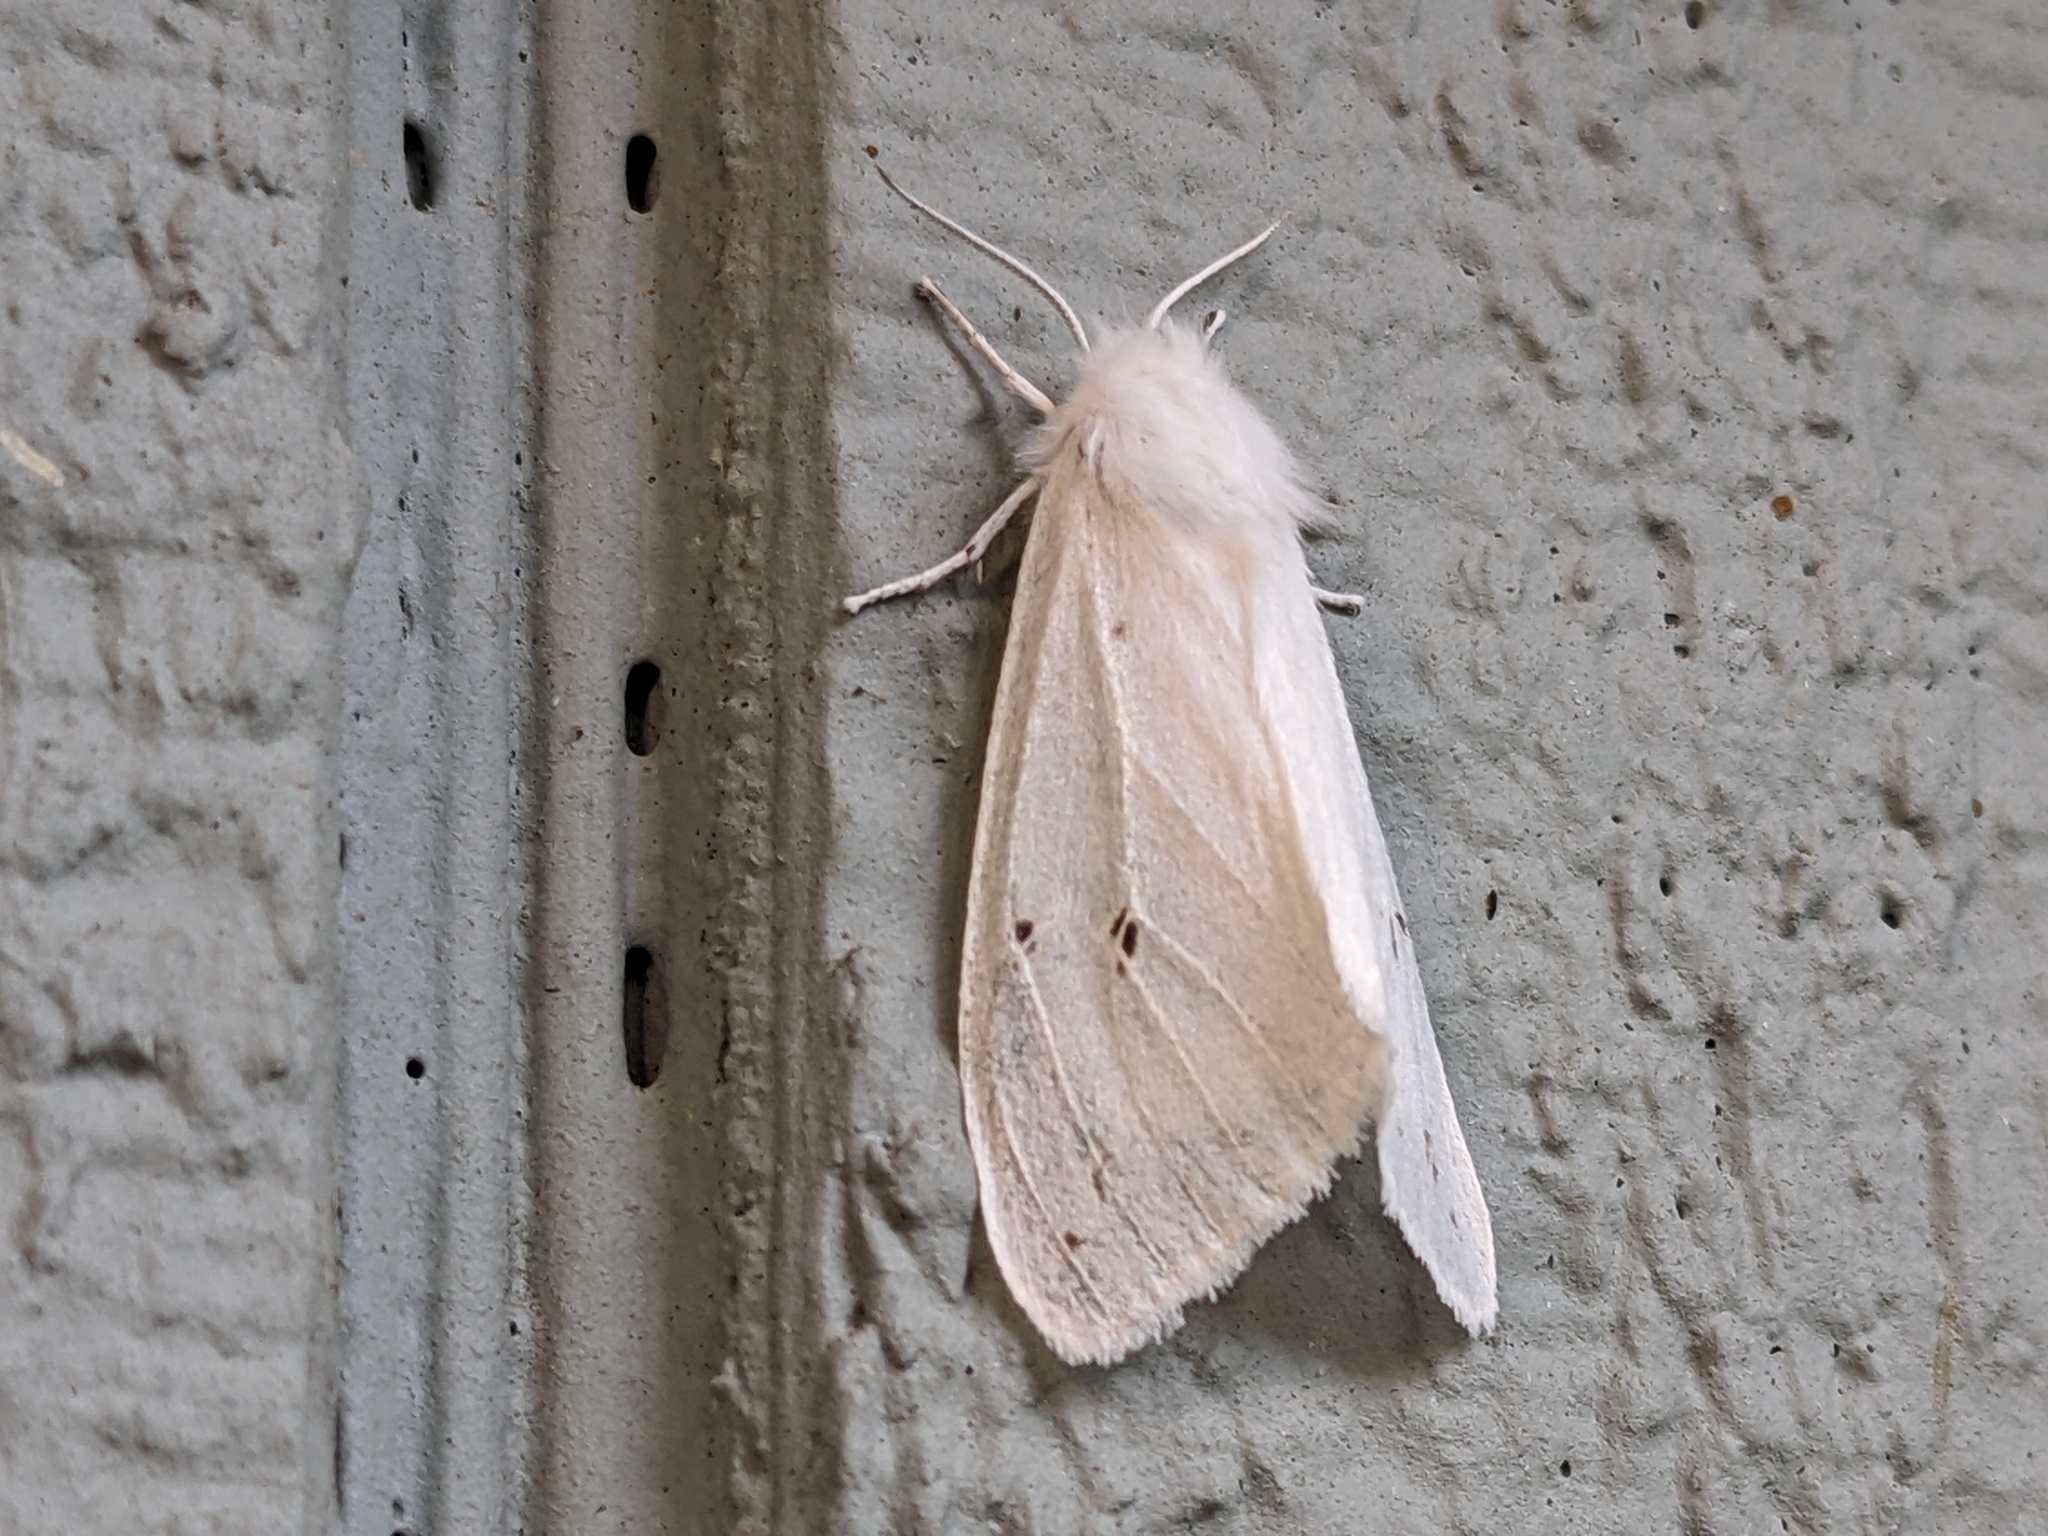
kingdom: Animalia
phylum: Arthropoda
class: Insecta
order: Lepidoptera
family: Erebidae
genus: Spilosoma
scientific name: Spilosoma congrua
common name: Agreeable tiger moth
